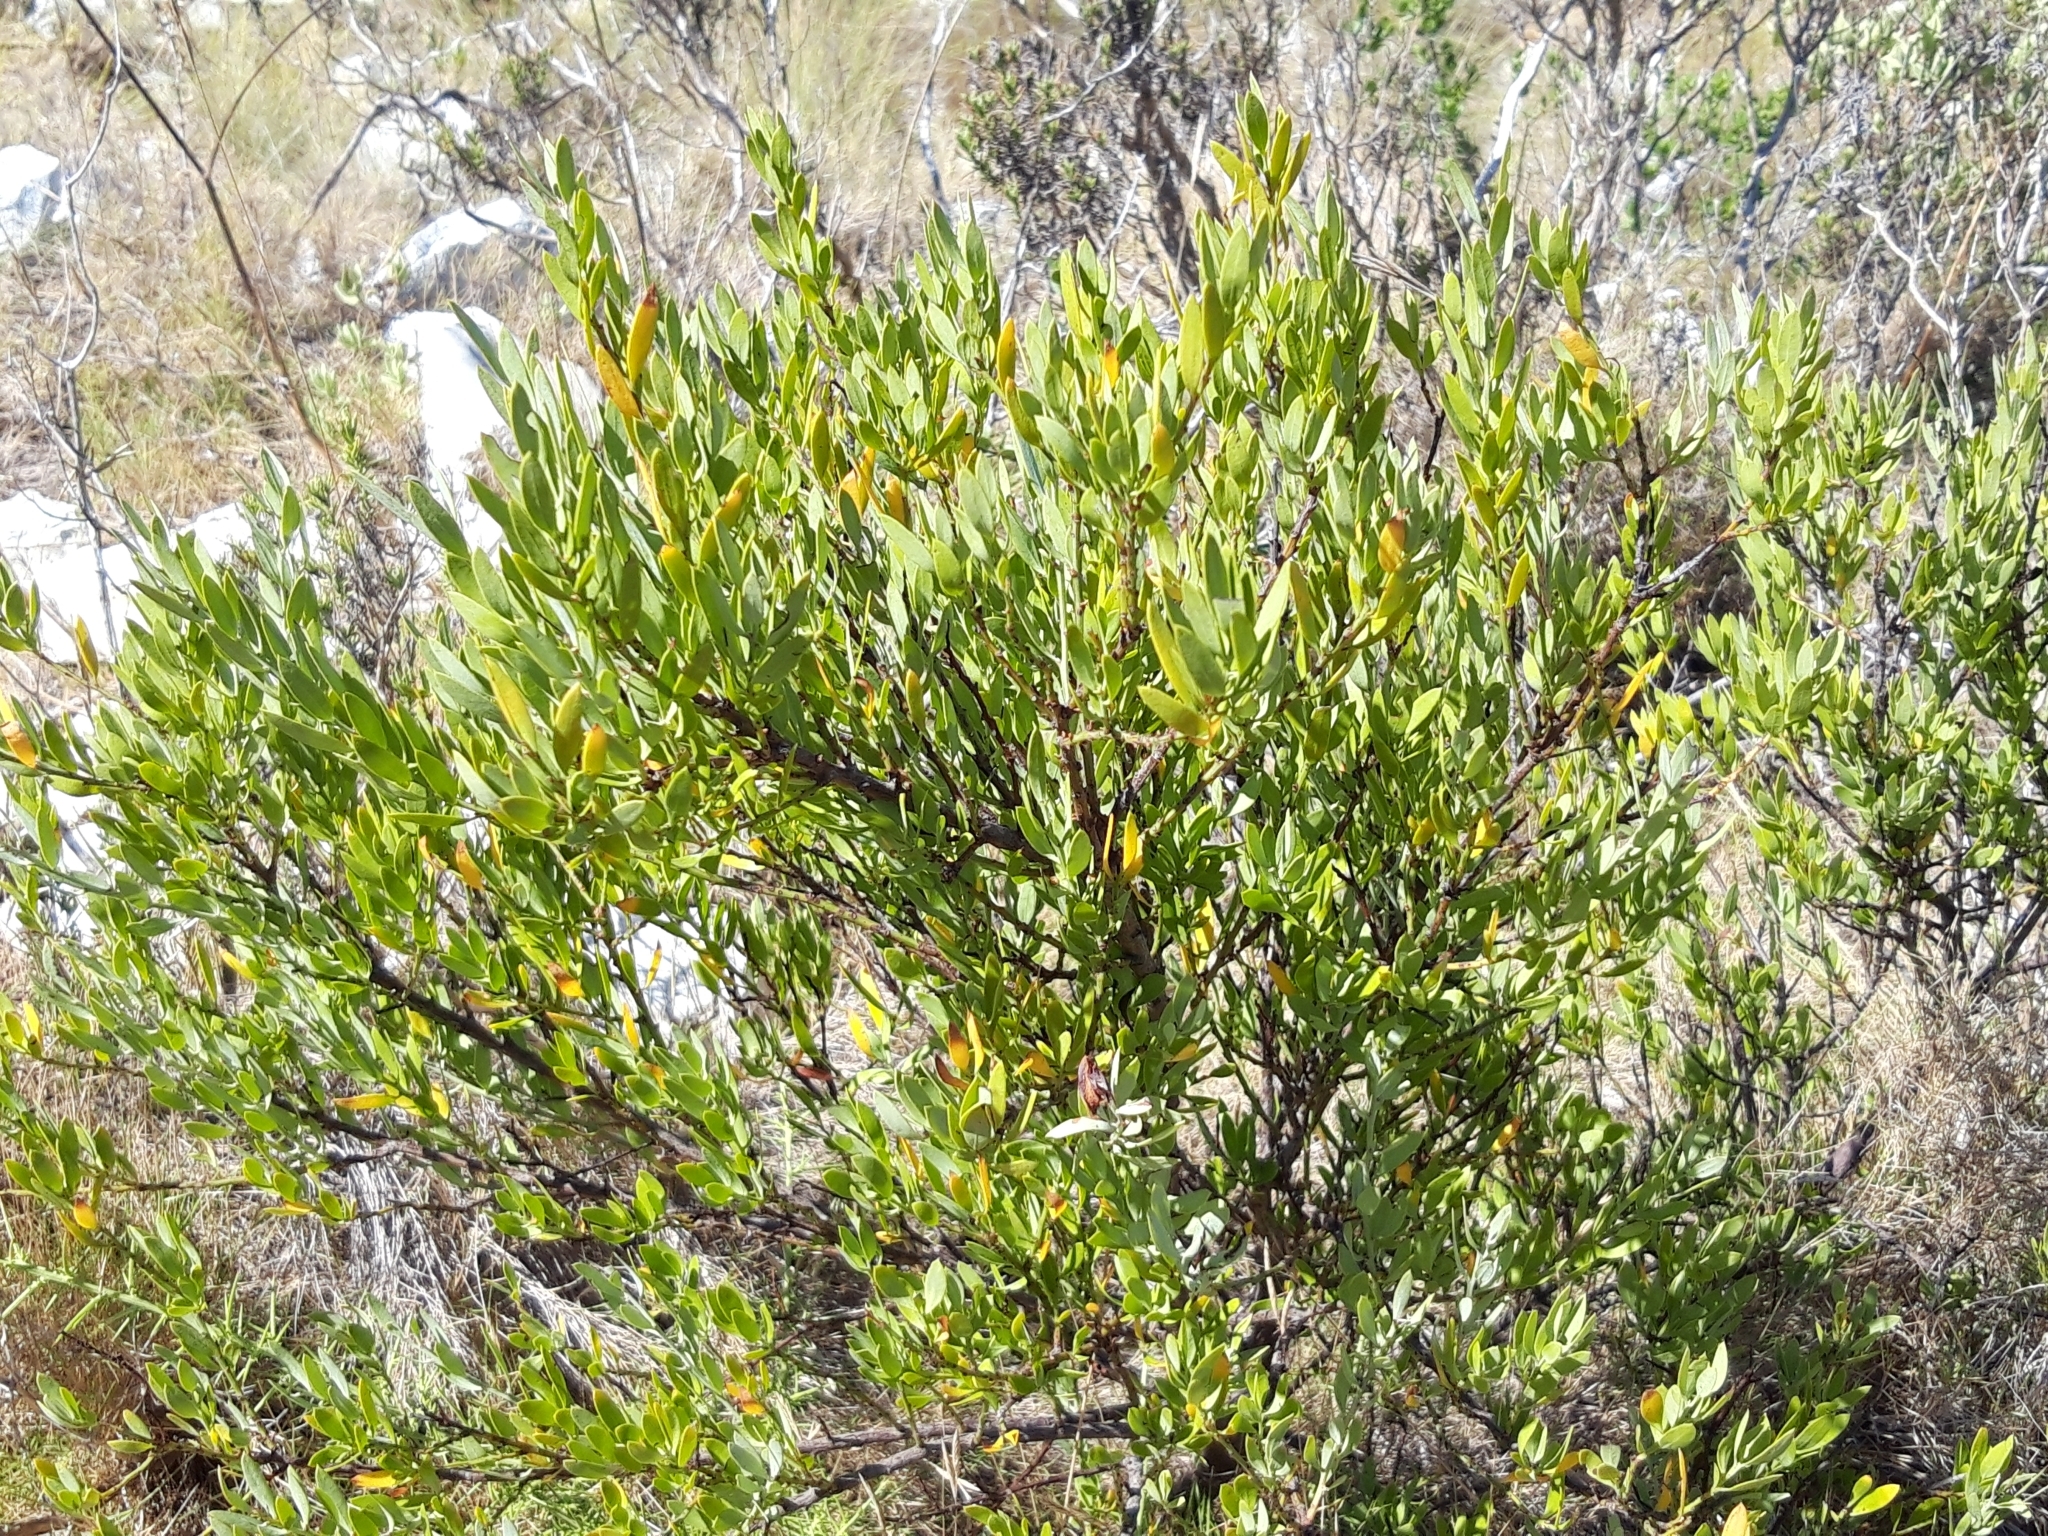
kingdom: Plantae
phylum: Tracheophyta
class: Magnoliopsida
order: Santalales
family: Santalaceae
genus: Osyris
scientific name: Osyris lanceolata
